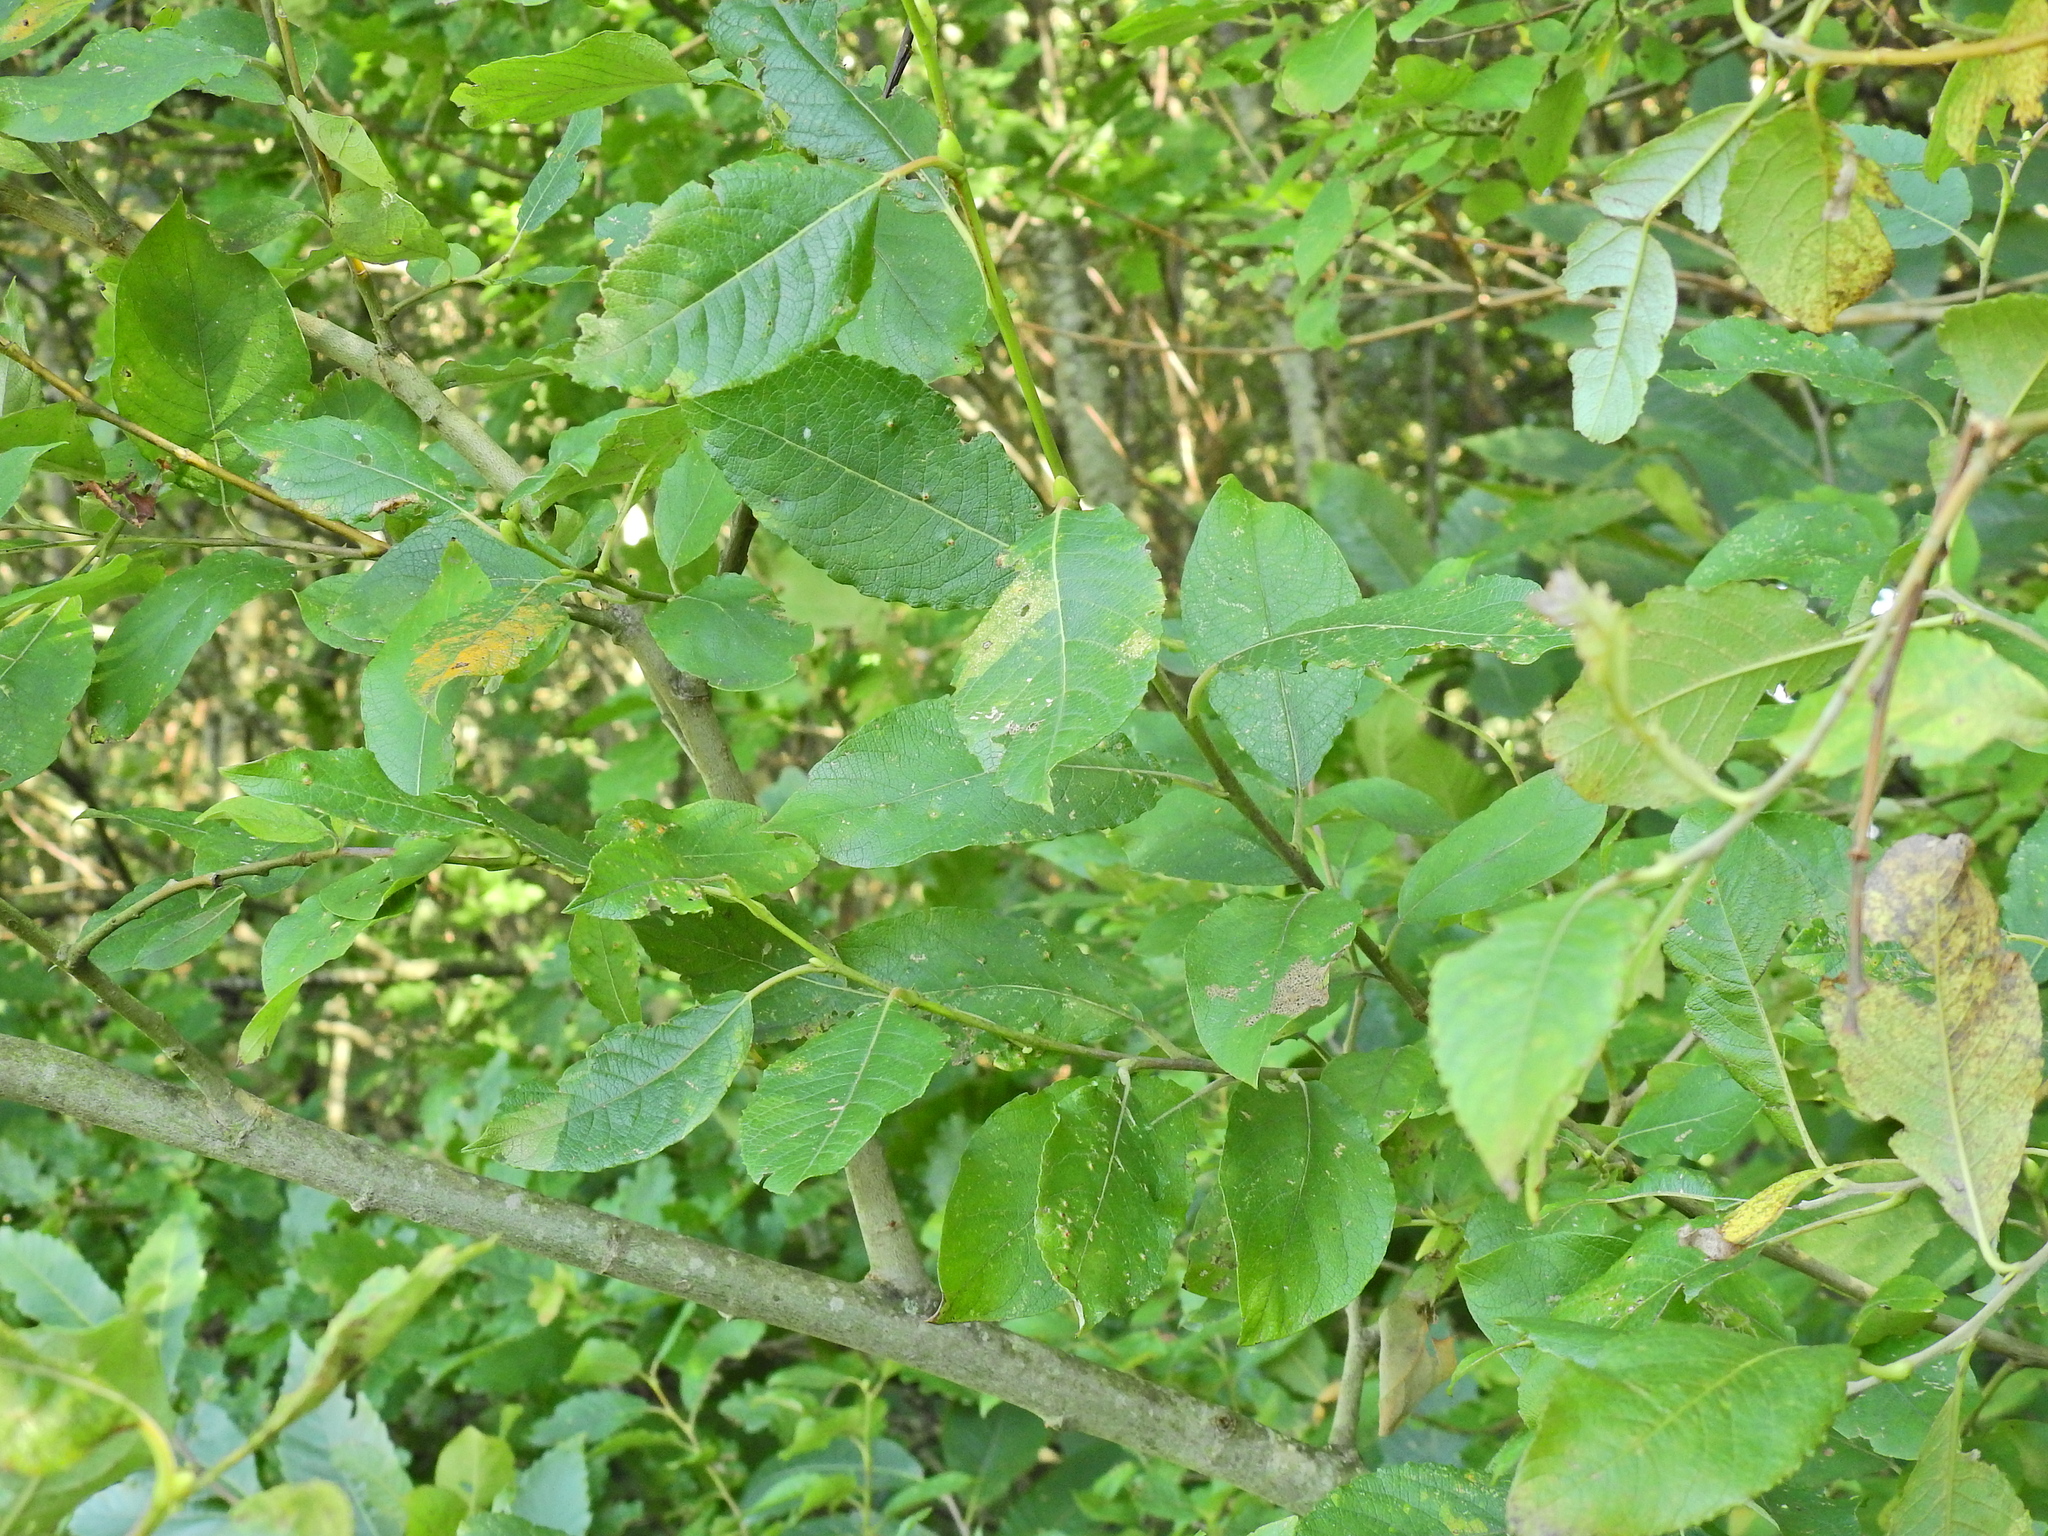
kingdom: Plantae
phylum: Tracheophyta
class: Magnoliopsida
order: Malpighiales
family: Salicaceae
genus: Salix
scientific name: Salix caprea
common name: Goat willow
